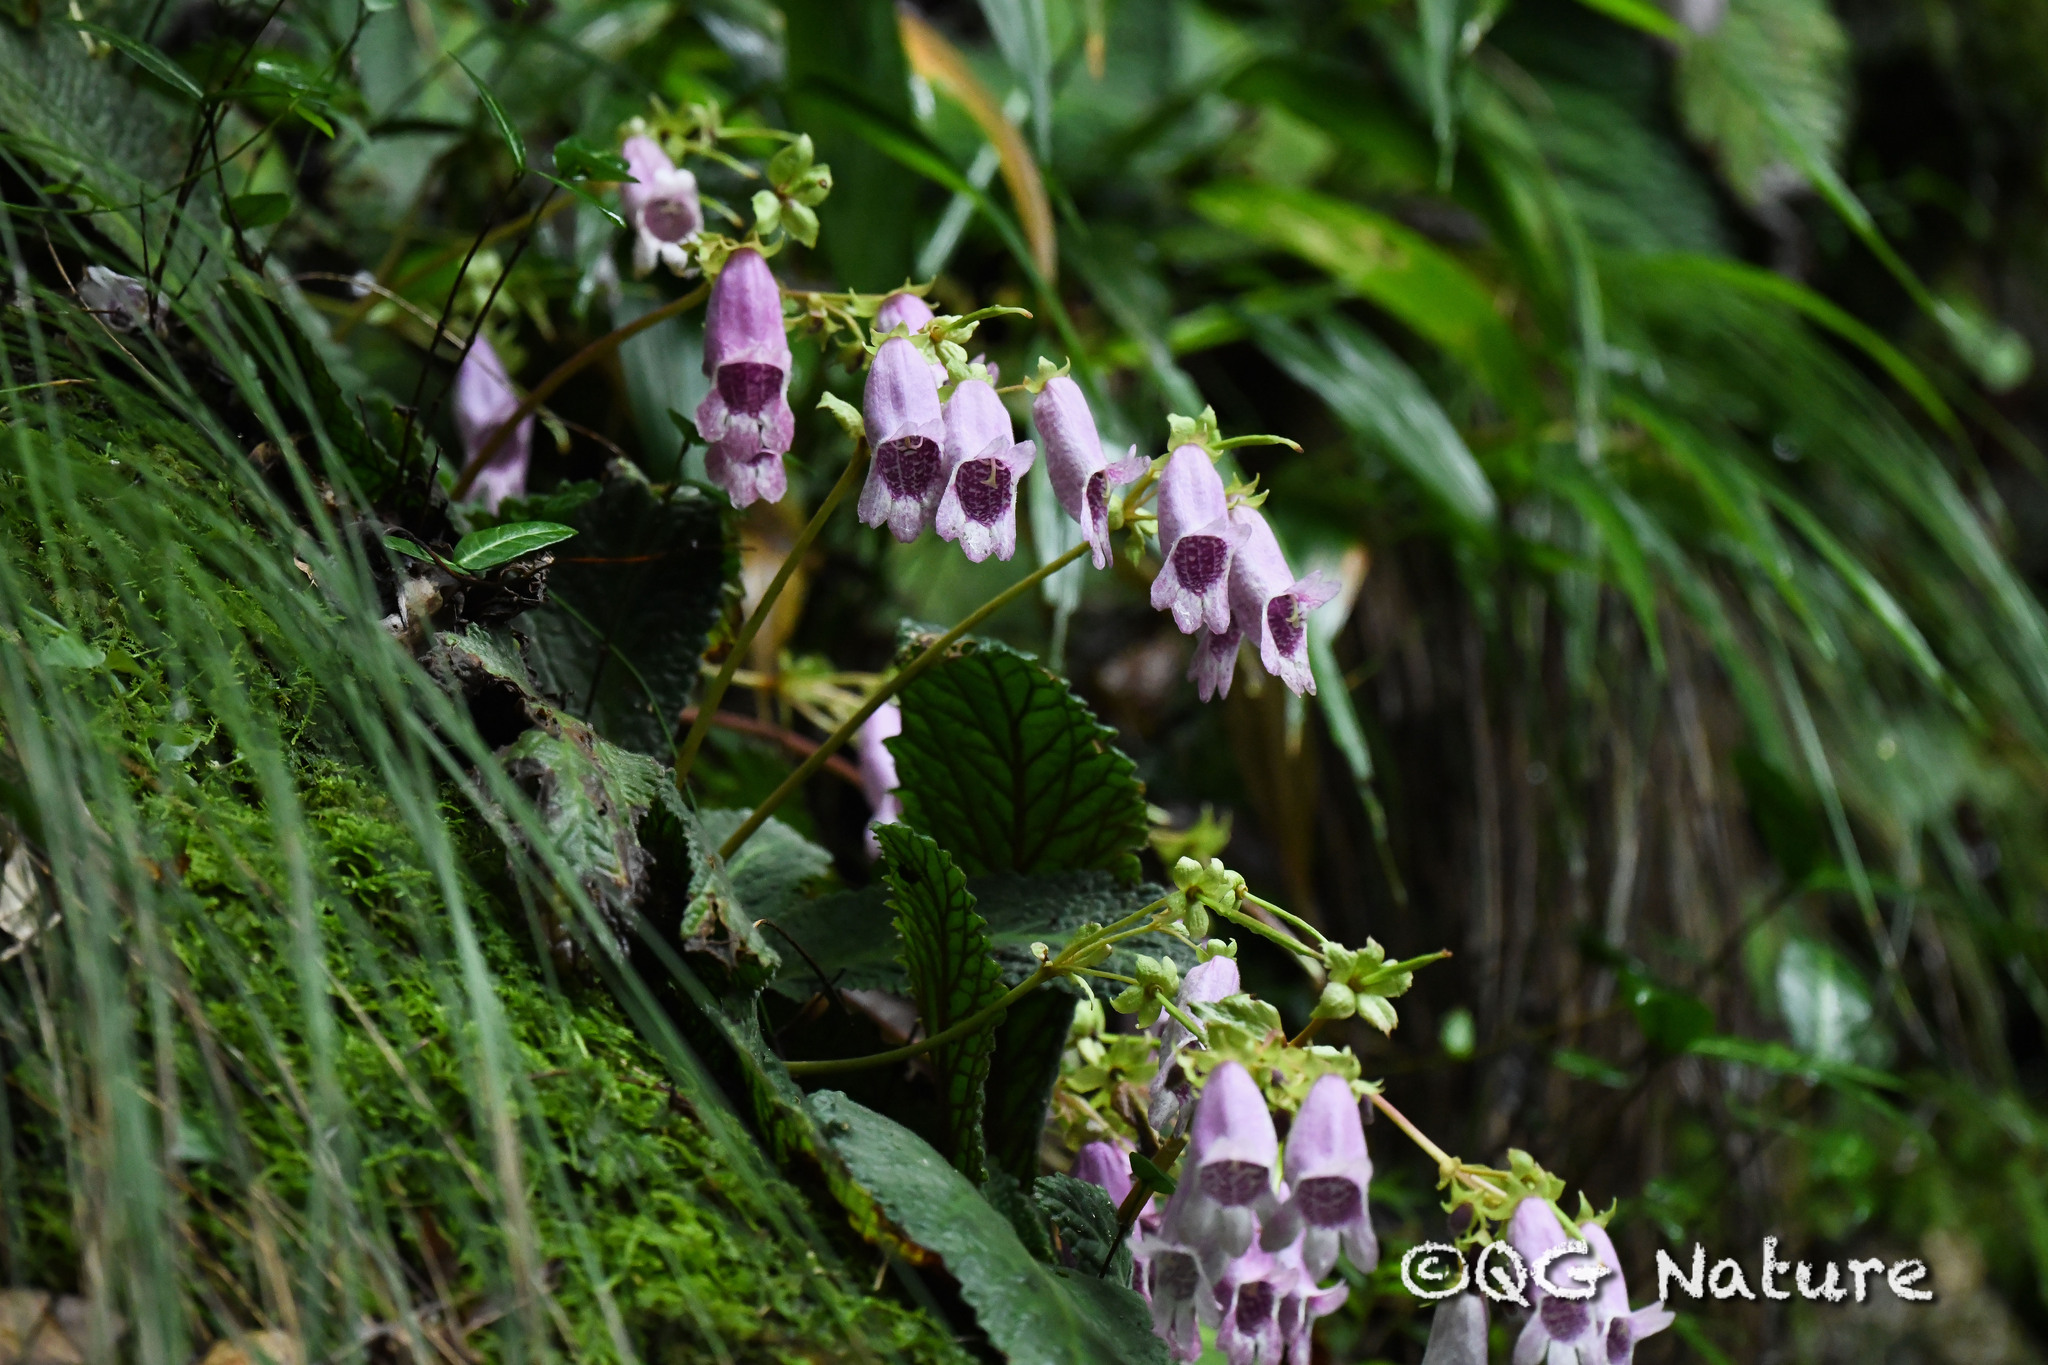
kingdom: Plantae
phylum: Tracheophyta
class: Magnoliopsida
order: Lamiales
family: Gesneriaceae
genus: Oreocharis
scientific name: Oreocharis chienii
